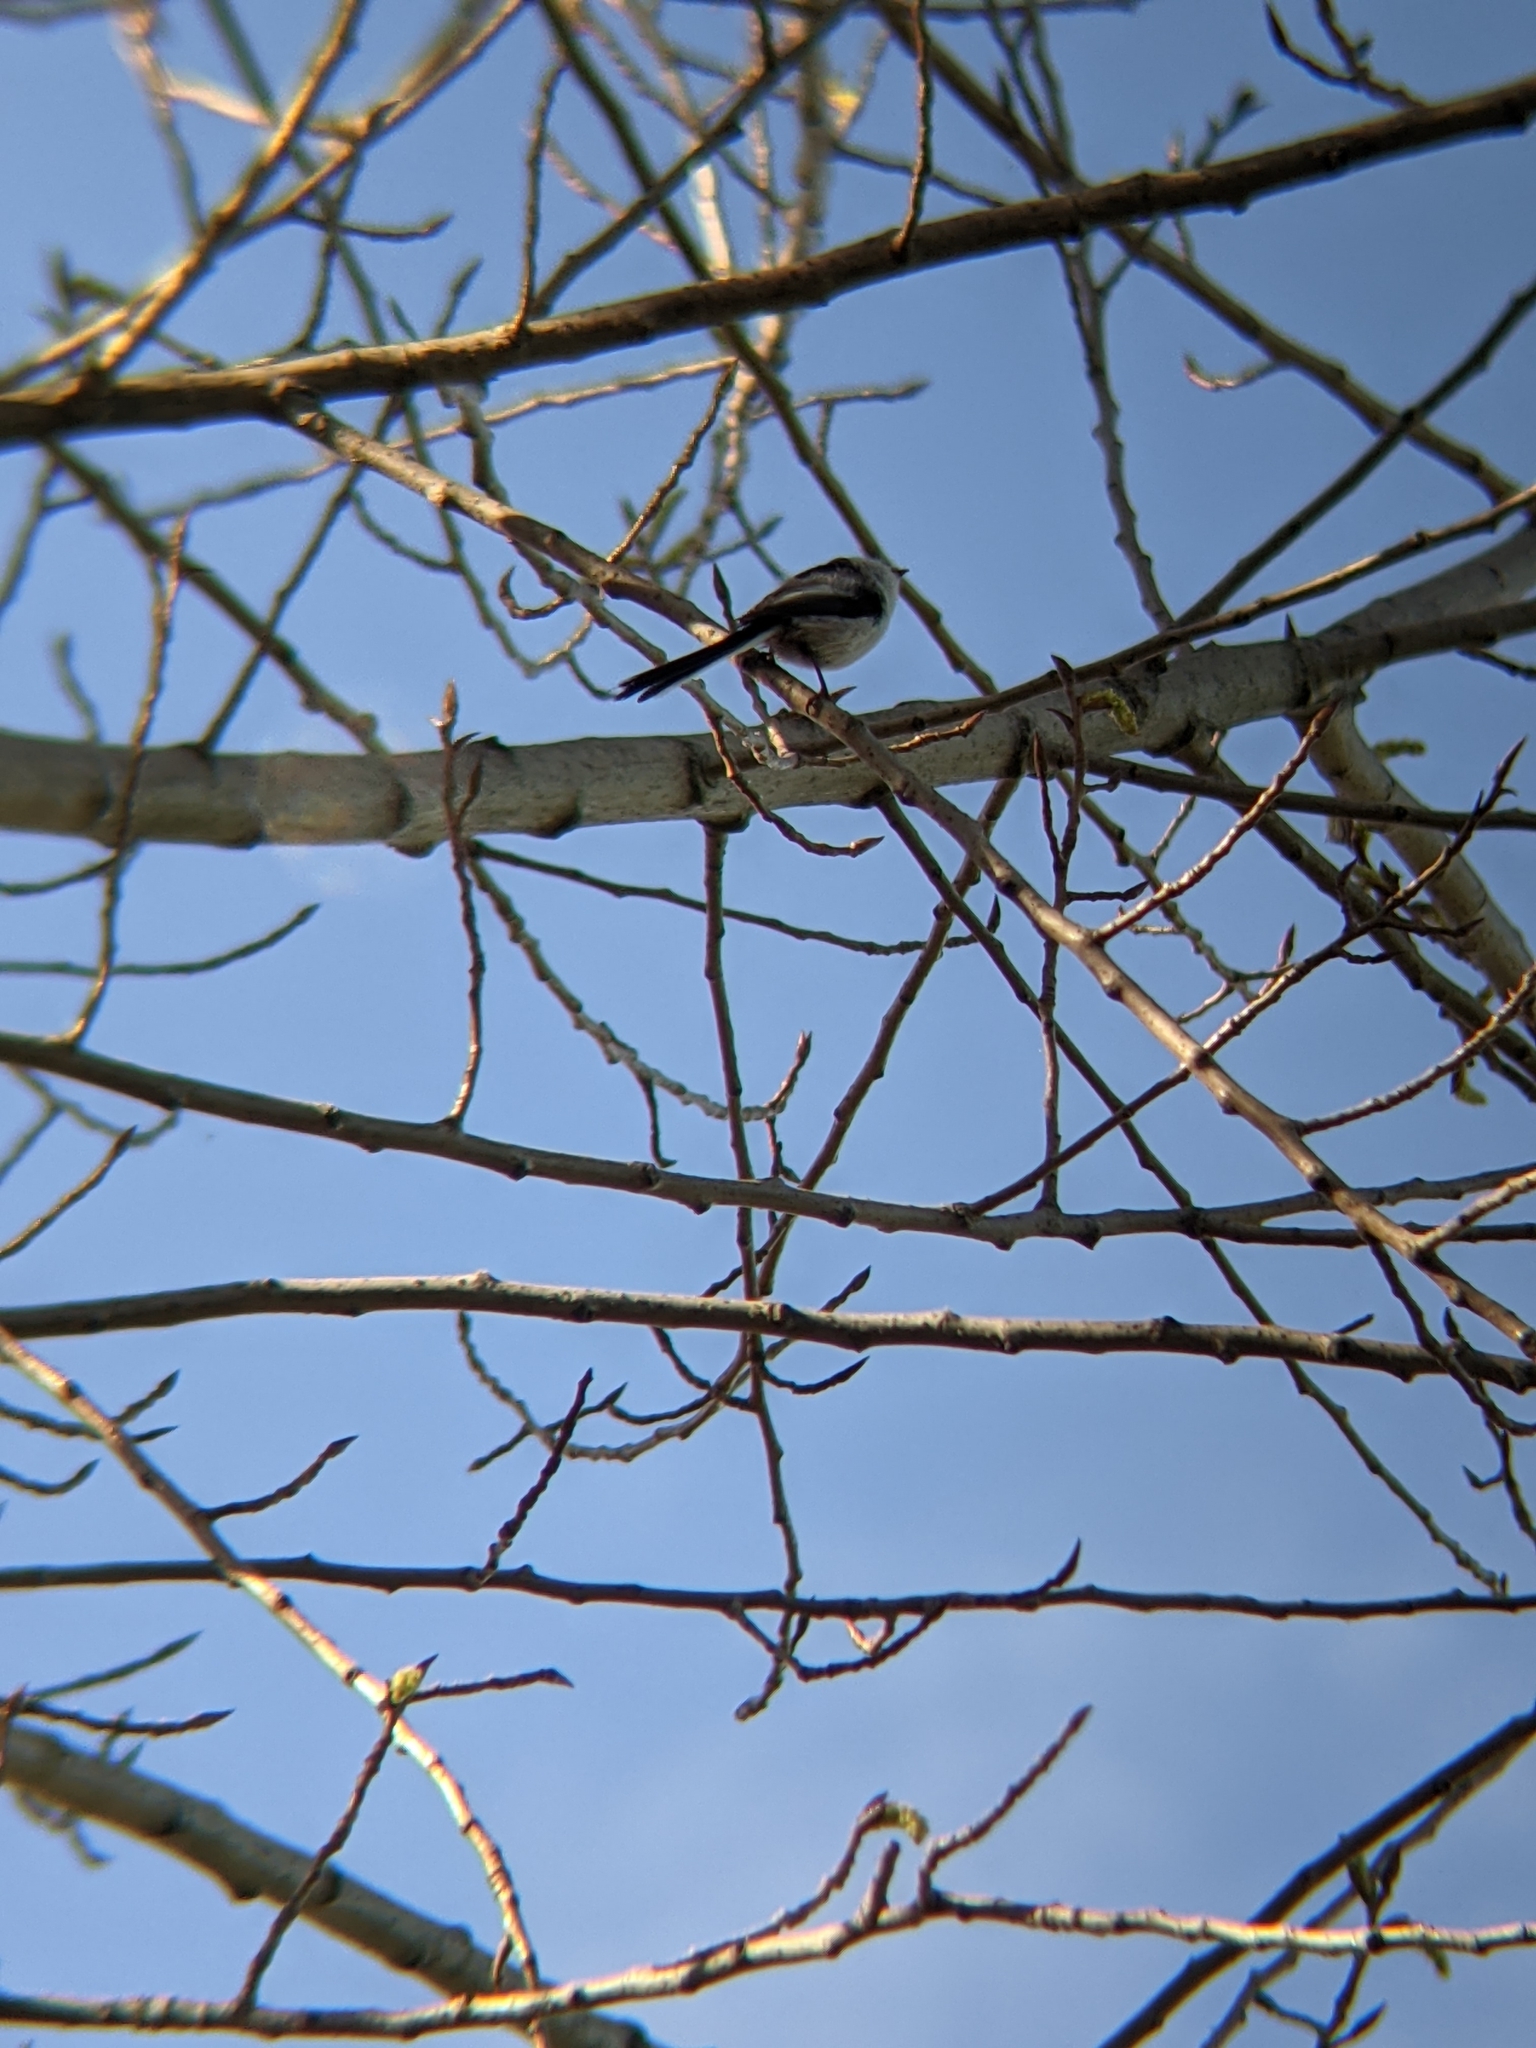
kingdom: Animalia
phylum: Chordata
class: Aves
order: Passeriformes
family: Aegithalidae
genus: Aegithalos
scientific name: Aegithalos caudatus
